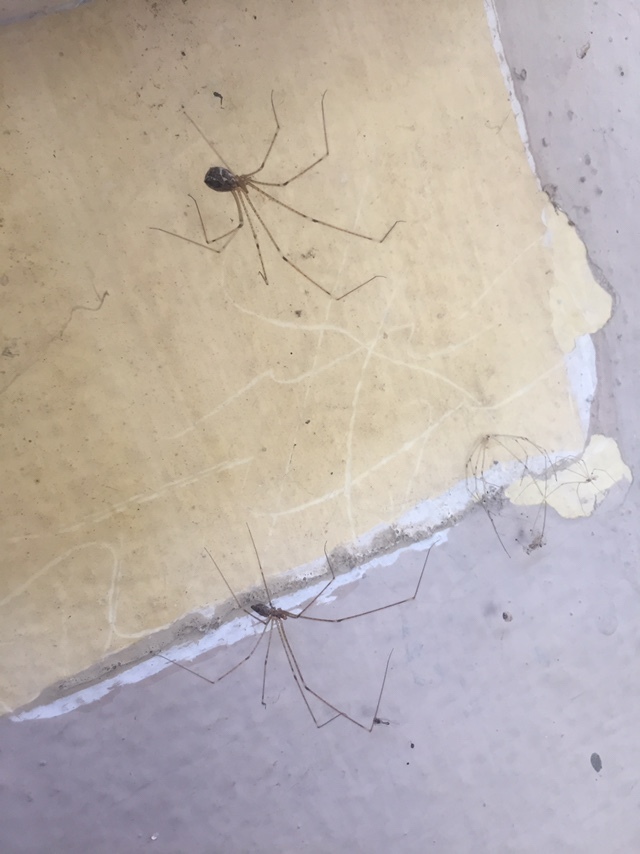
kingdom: Animalia
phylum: Arthropoda
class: Arachnida
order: Araneae
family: Pholcidae
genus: Crossopriza
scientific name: Crossopriza lyoni
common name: Cellar spiders
